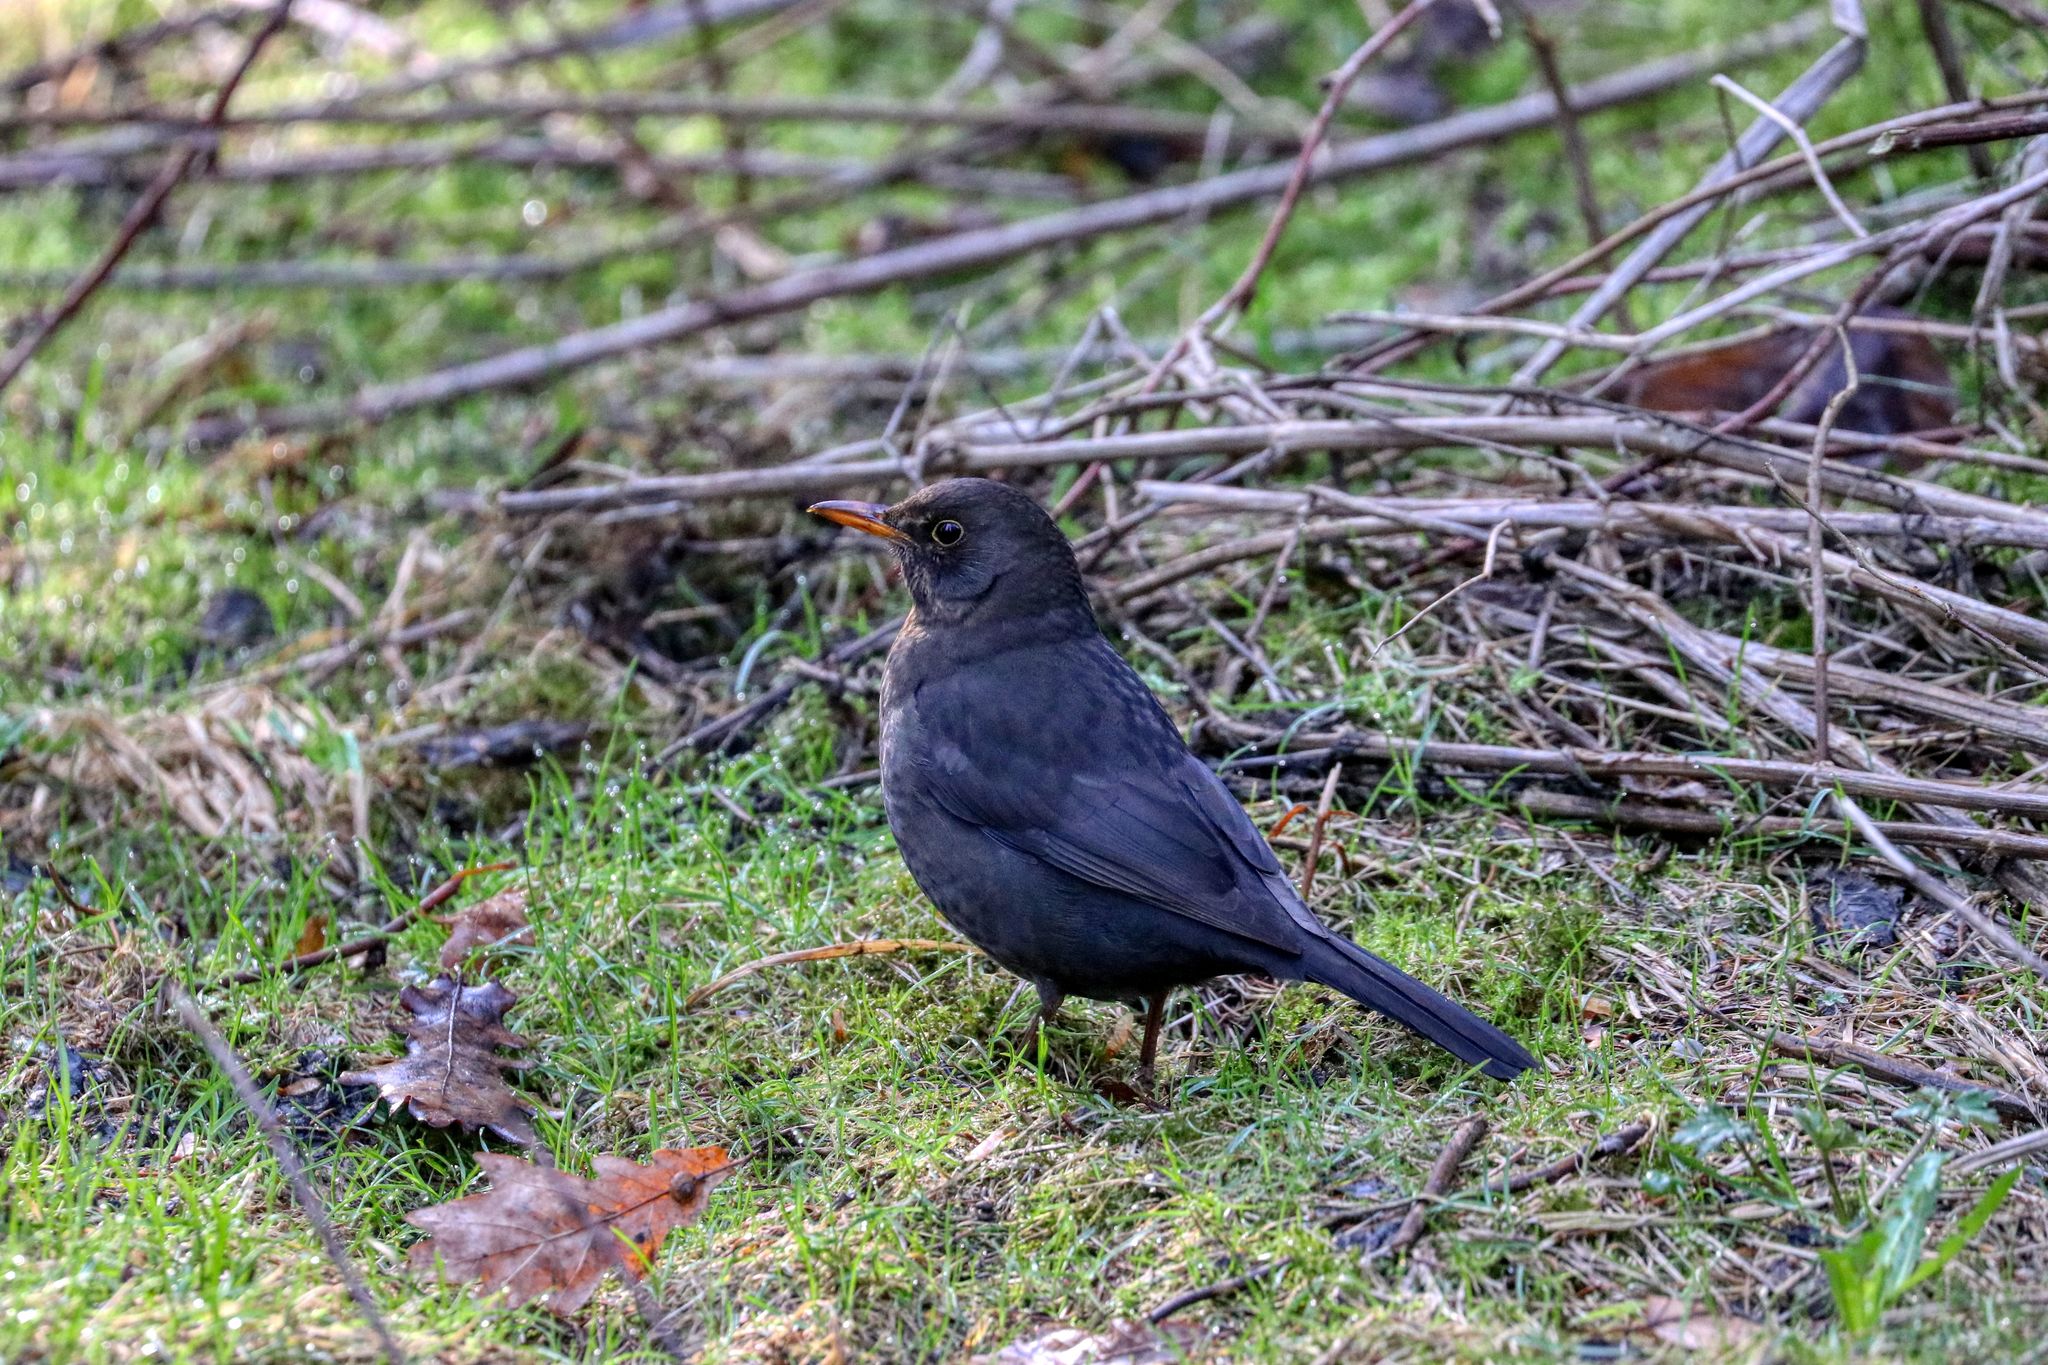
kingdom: Animalia
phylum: Chordata
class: Aves
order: Passeriformes
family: Turdidae
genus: Turdus
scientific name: Turdus merula
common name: Common blackbird
